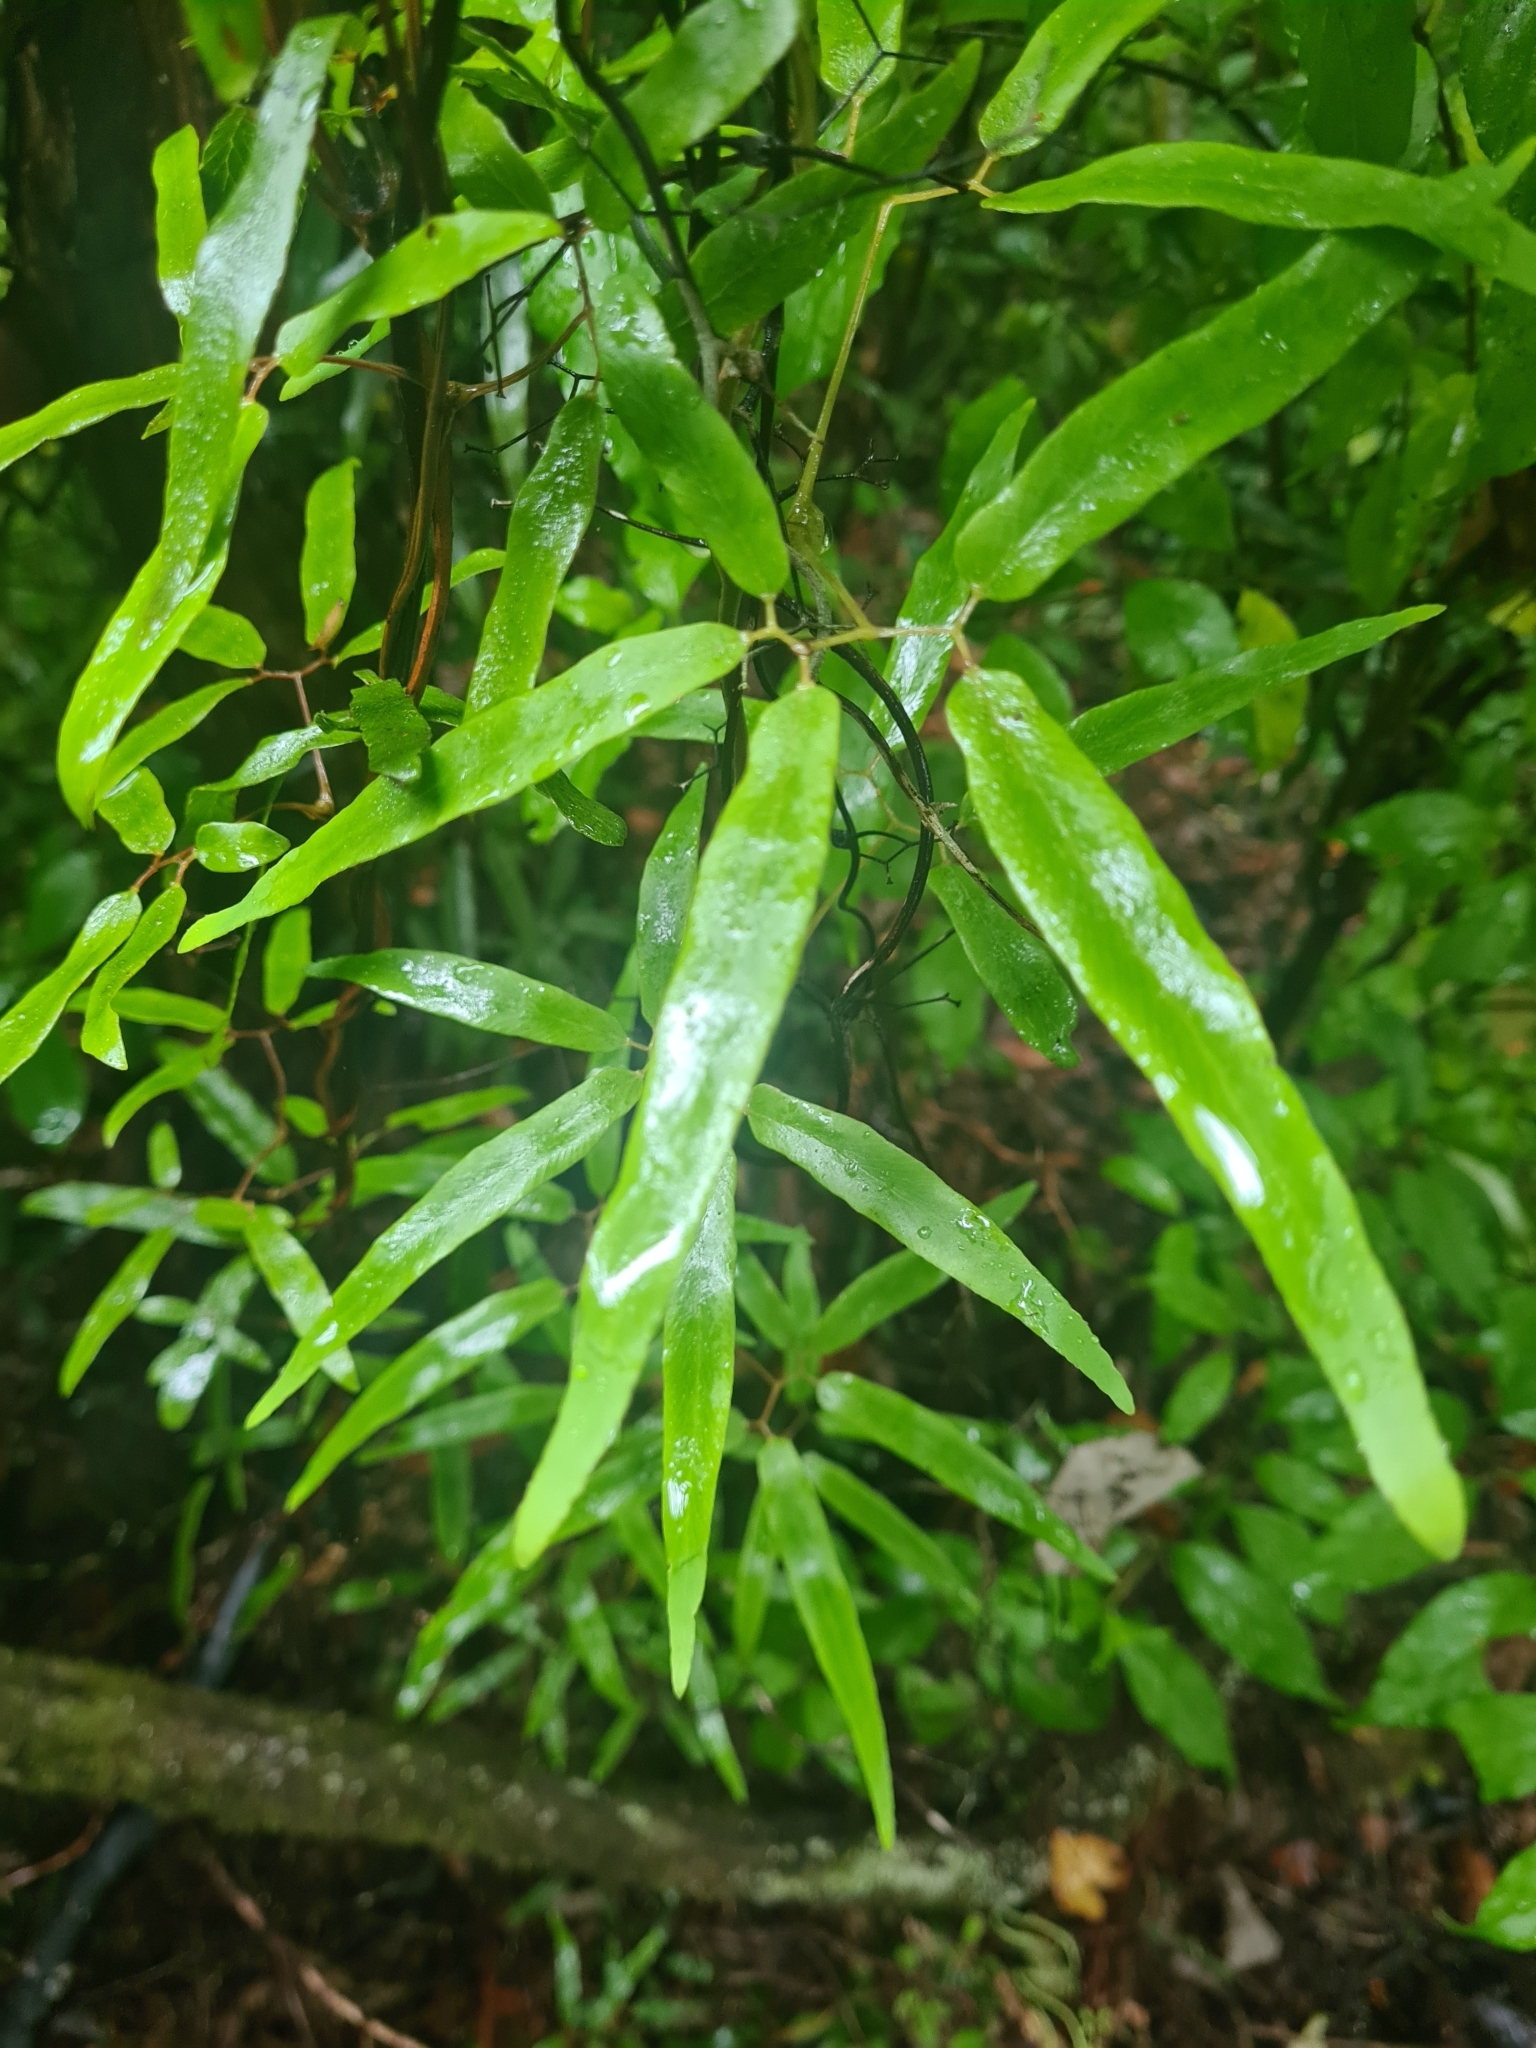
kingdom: Plantae
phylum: Tracheophyta
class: Polypodiopsida
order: Schizaeales
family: Lygodiaceae
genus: Lygodium
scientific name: Lygodium articulatum
